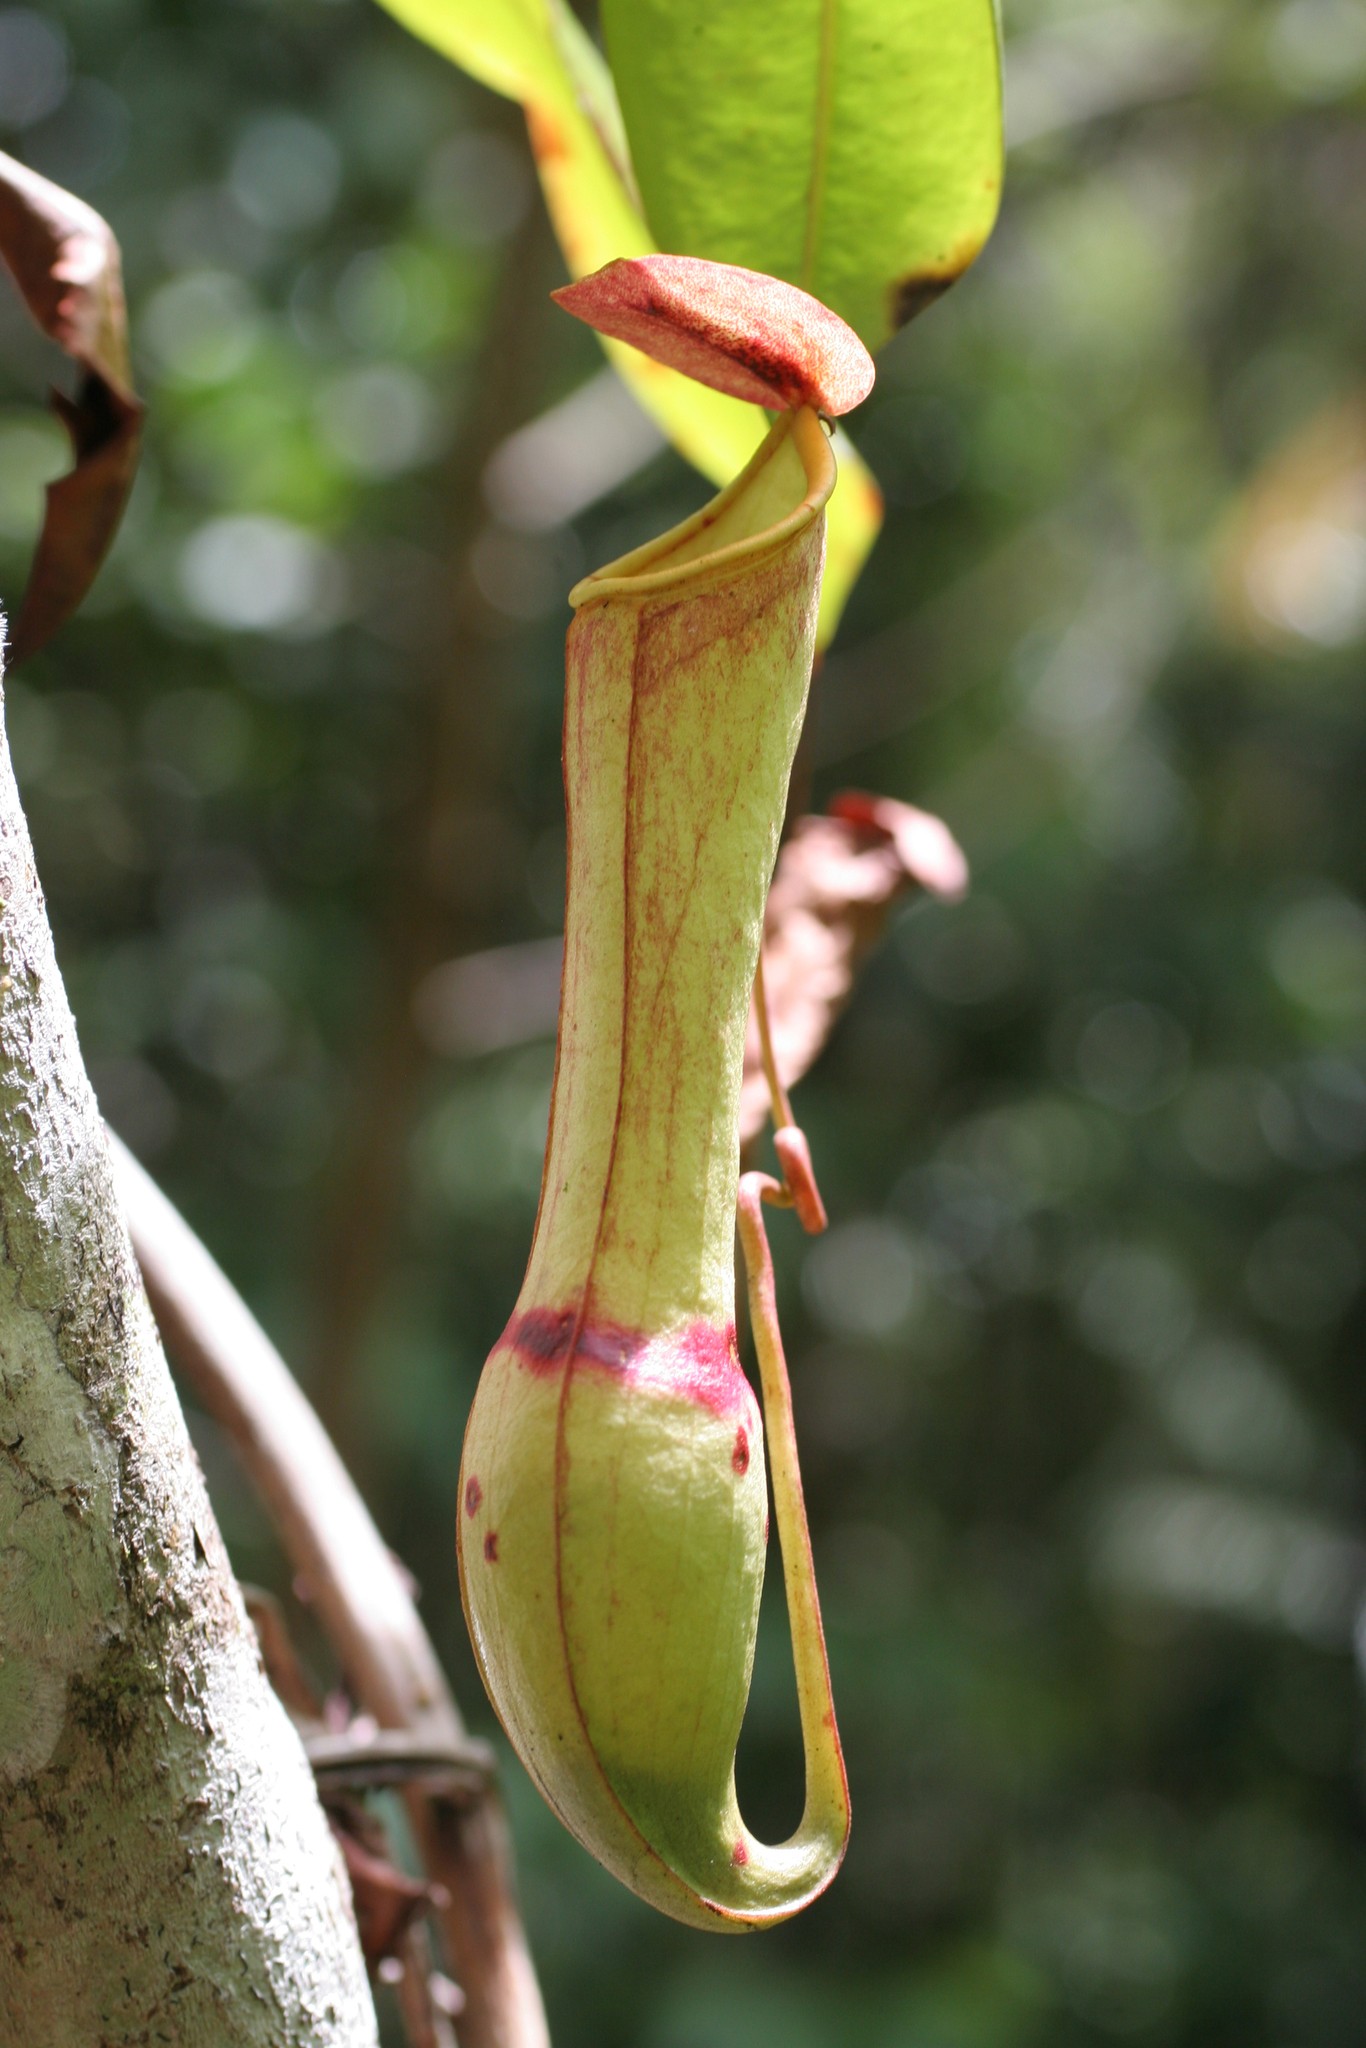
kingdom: Plantae
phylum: Tracheophyta
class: Magnoliopsida
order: Caryophyllales
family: Nepenthaceae
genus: Nepenthes
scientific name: Nepenthes distillatoria
